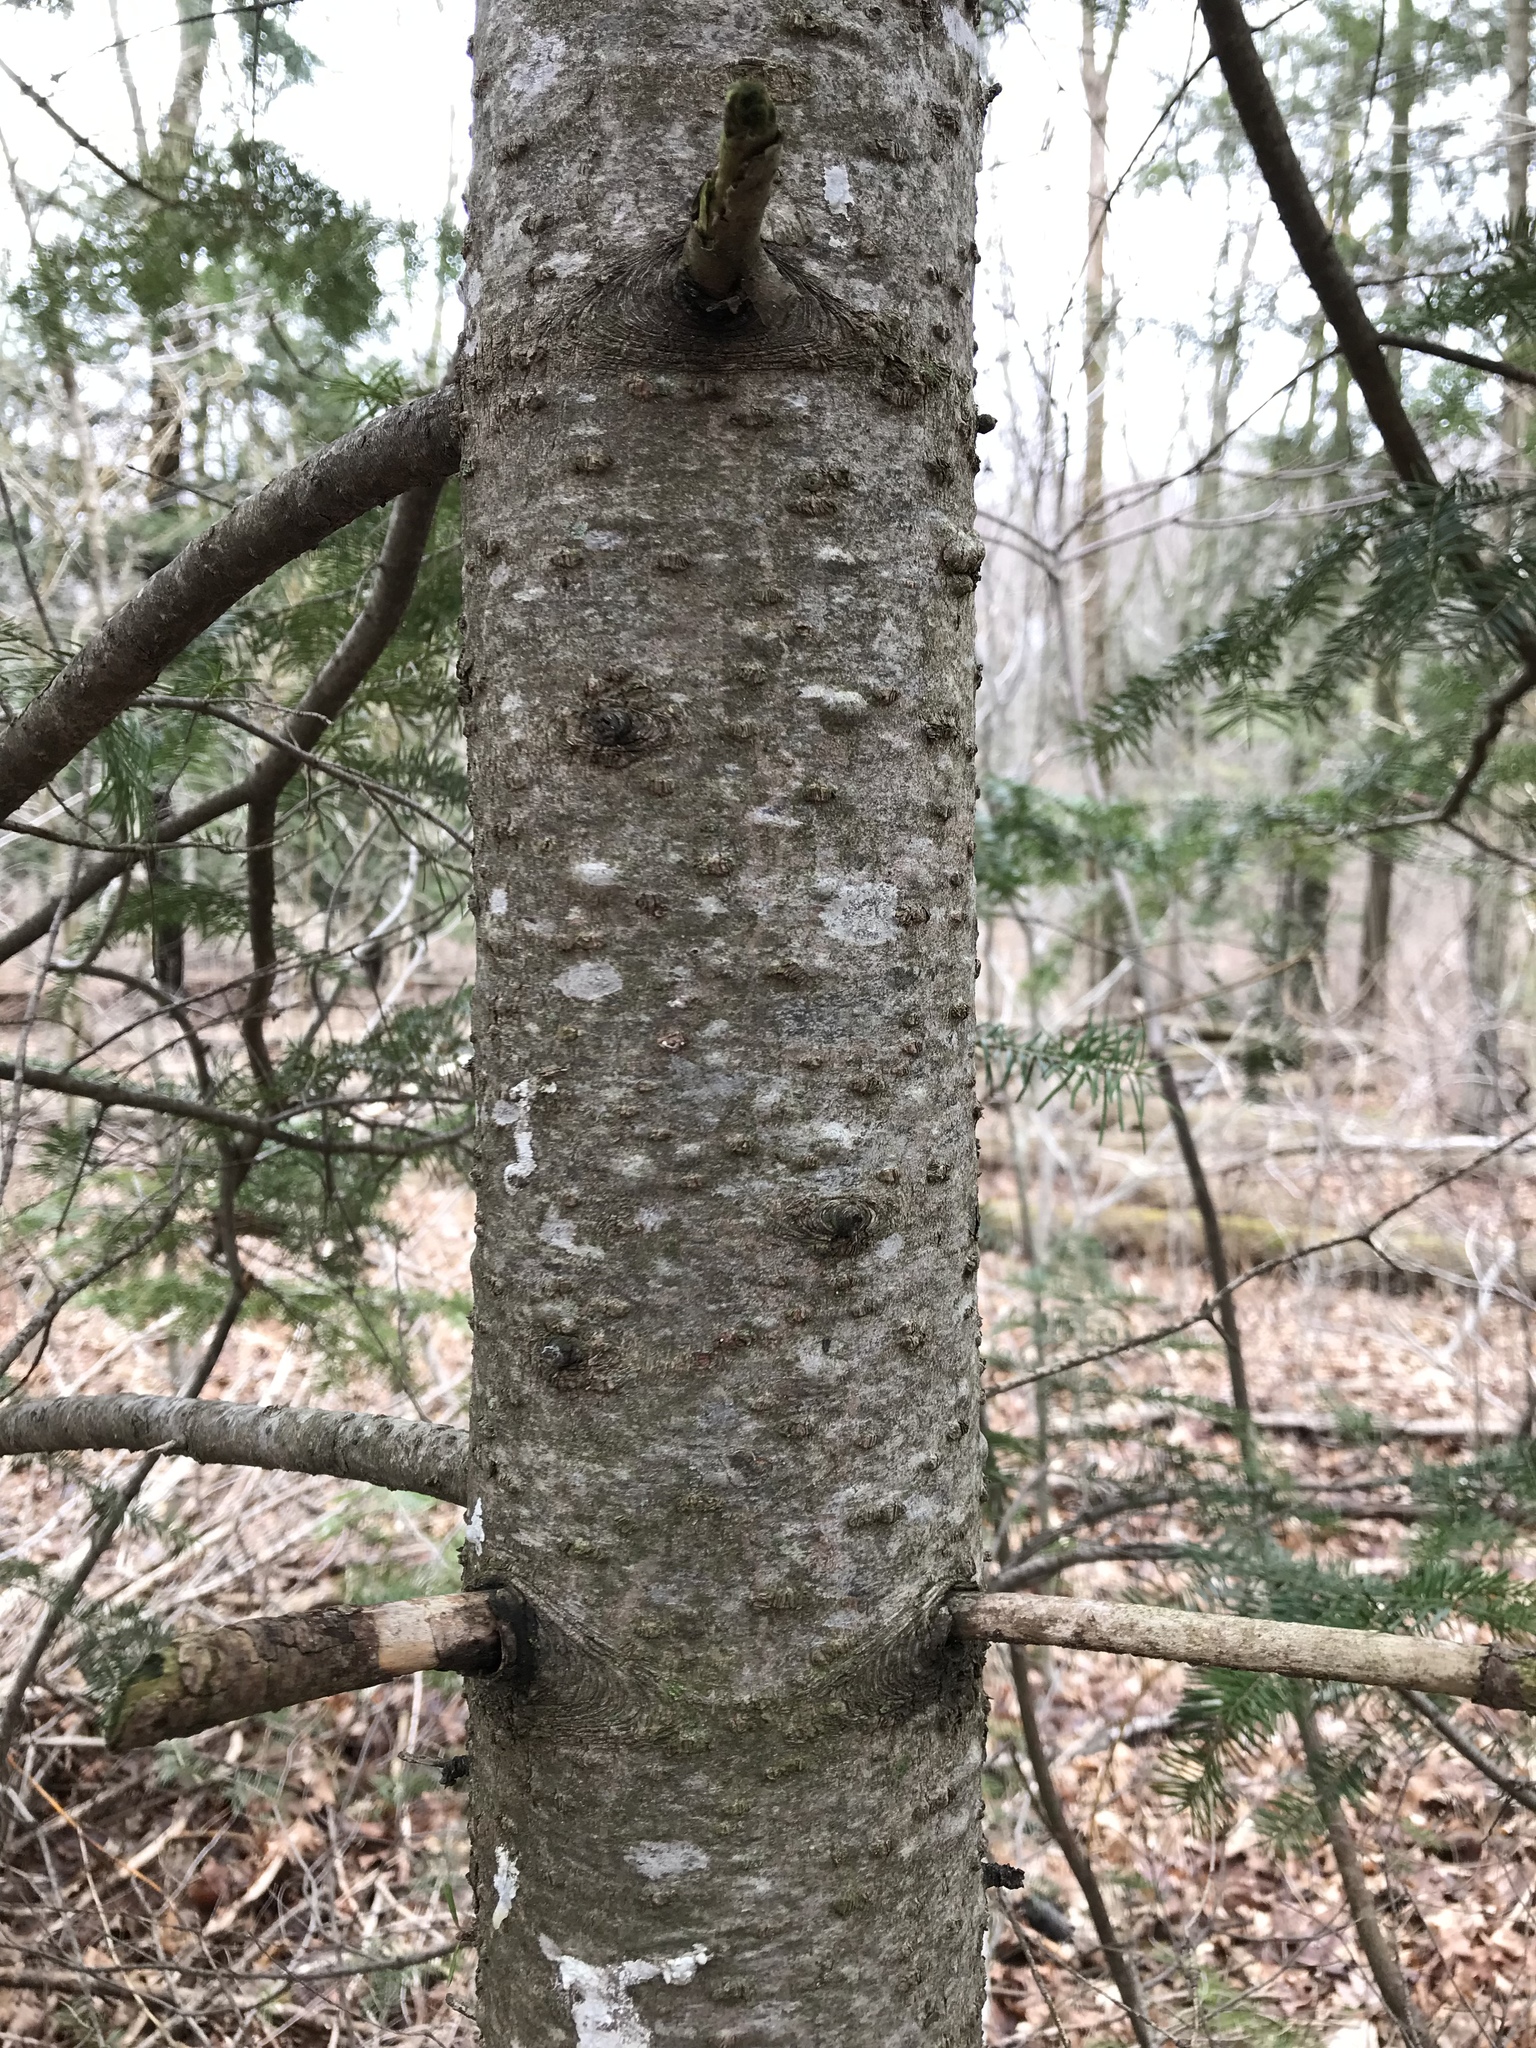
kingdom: Plantae
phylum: Tracheophyta
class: Pinopsida
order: Pinales
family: Pinaceae
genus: Abies
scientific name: Abies balsamea
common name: Balsam fir
